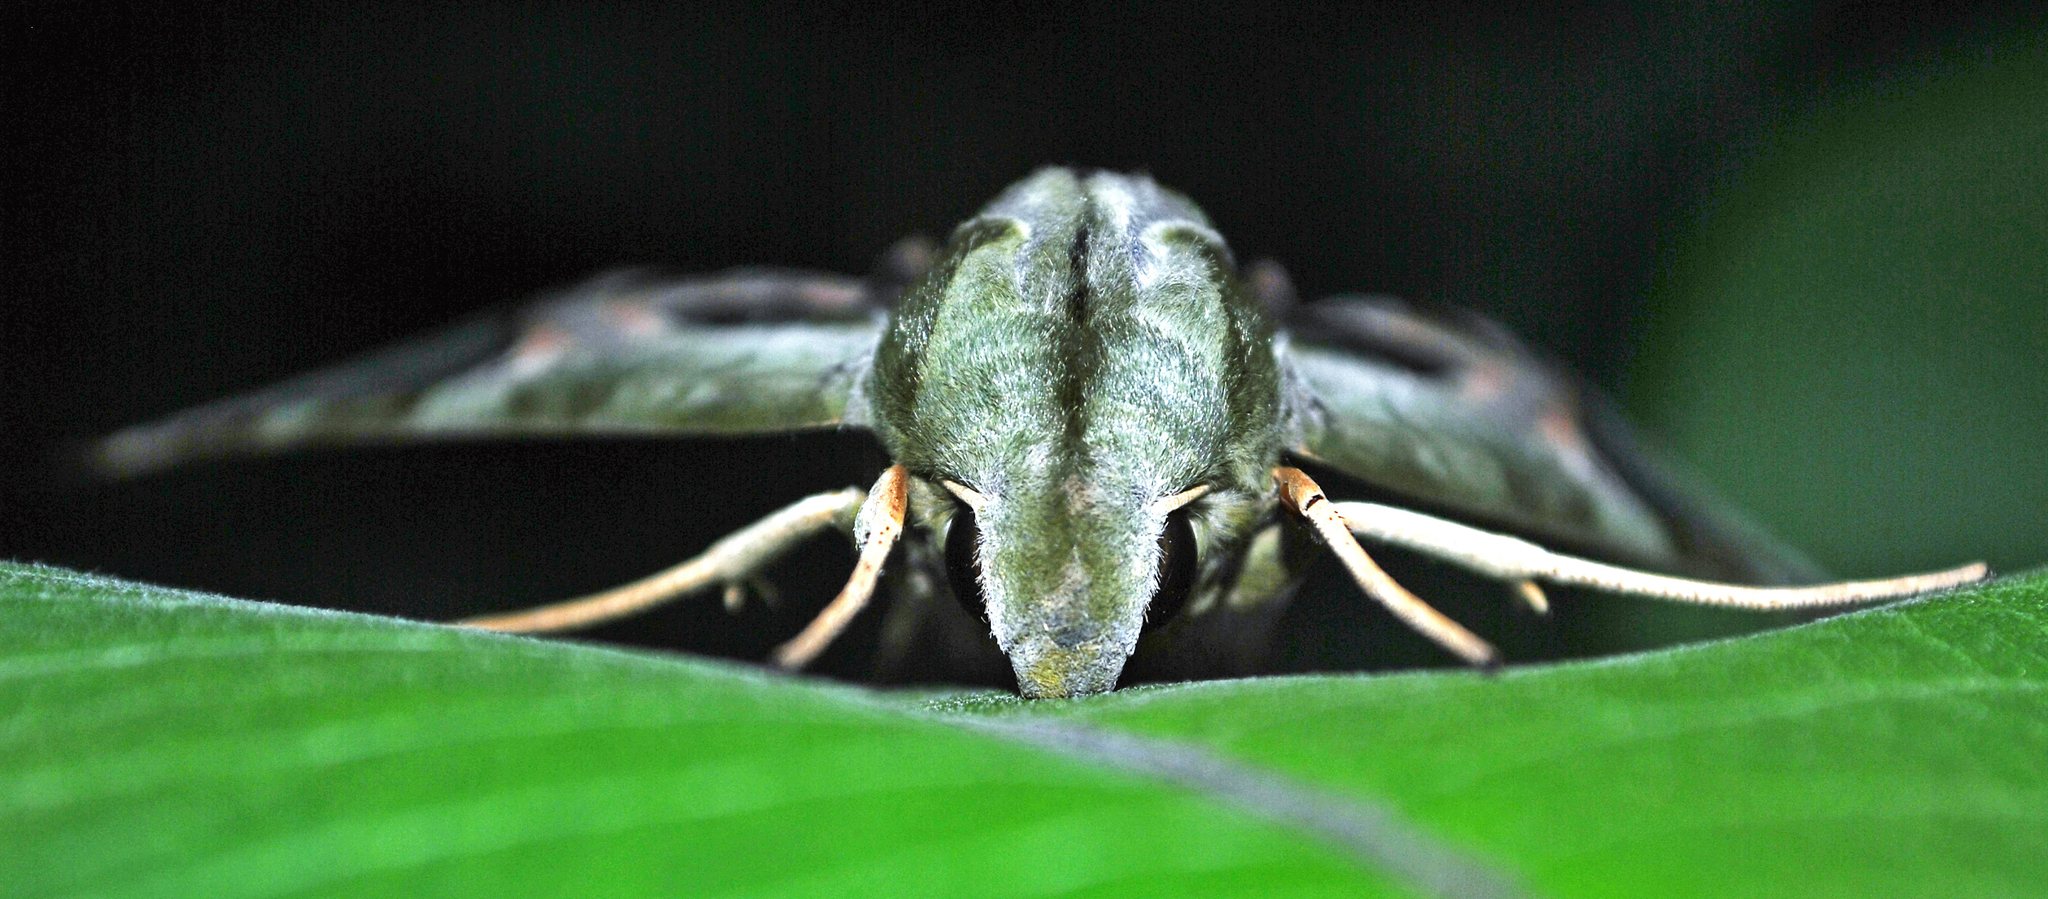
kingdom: Animalia
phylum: Arthropoda
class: Insecta
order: Lepidoptera
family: Sphingidae
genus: Eumorpha
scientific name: Eumorpha pandorus
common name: Pandora sphinx
